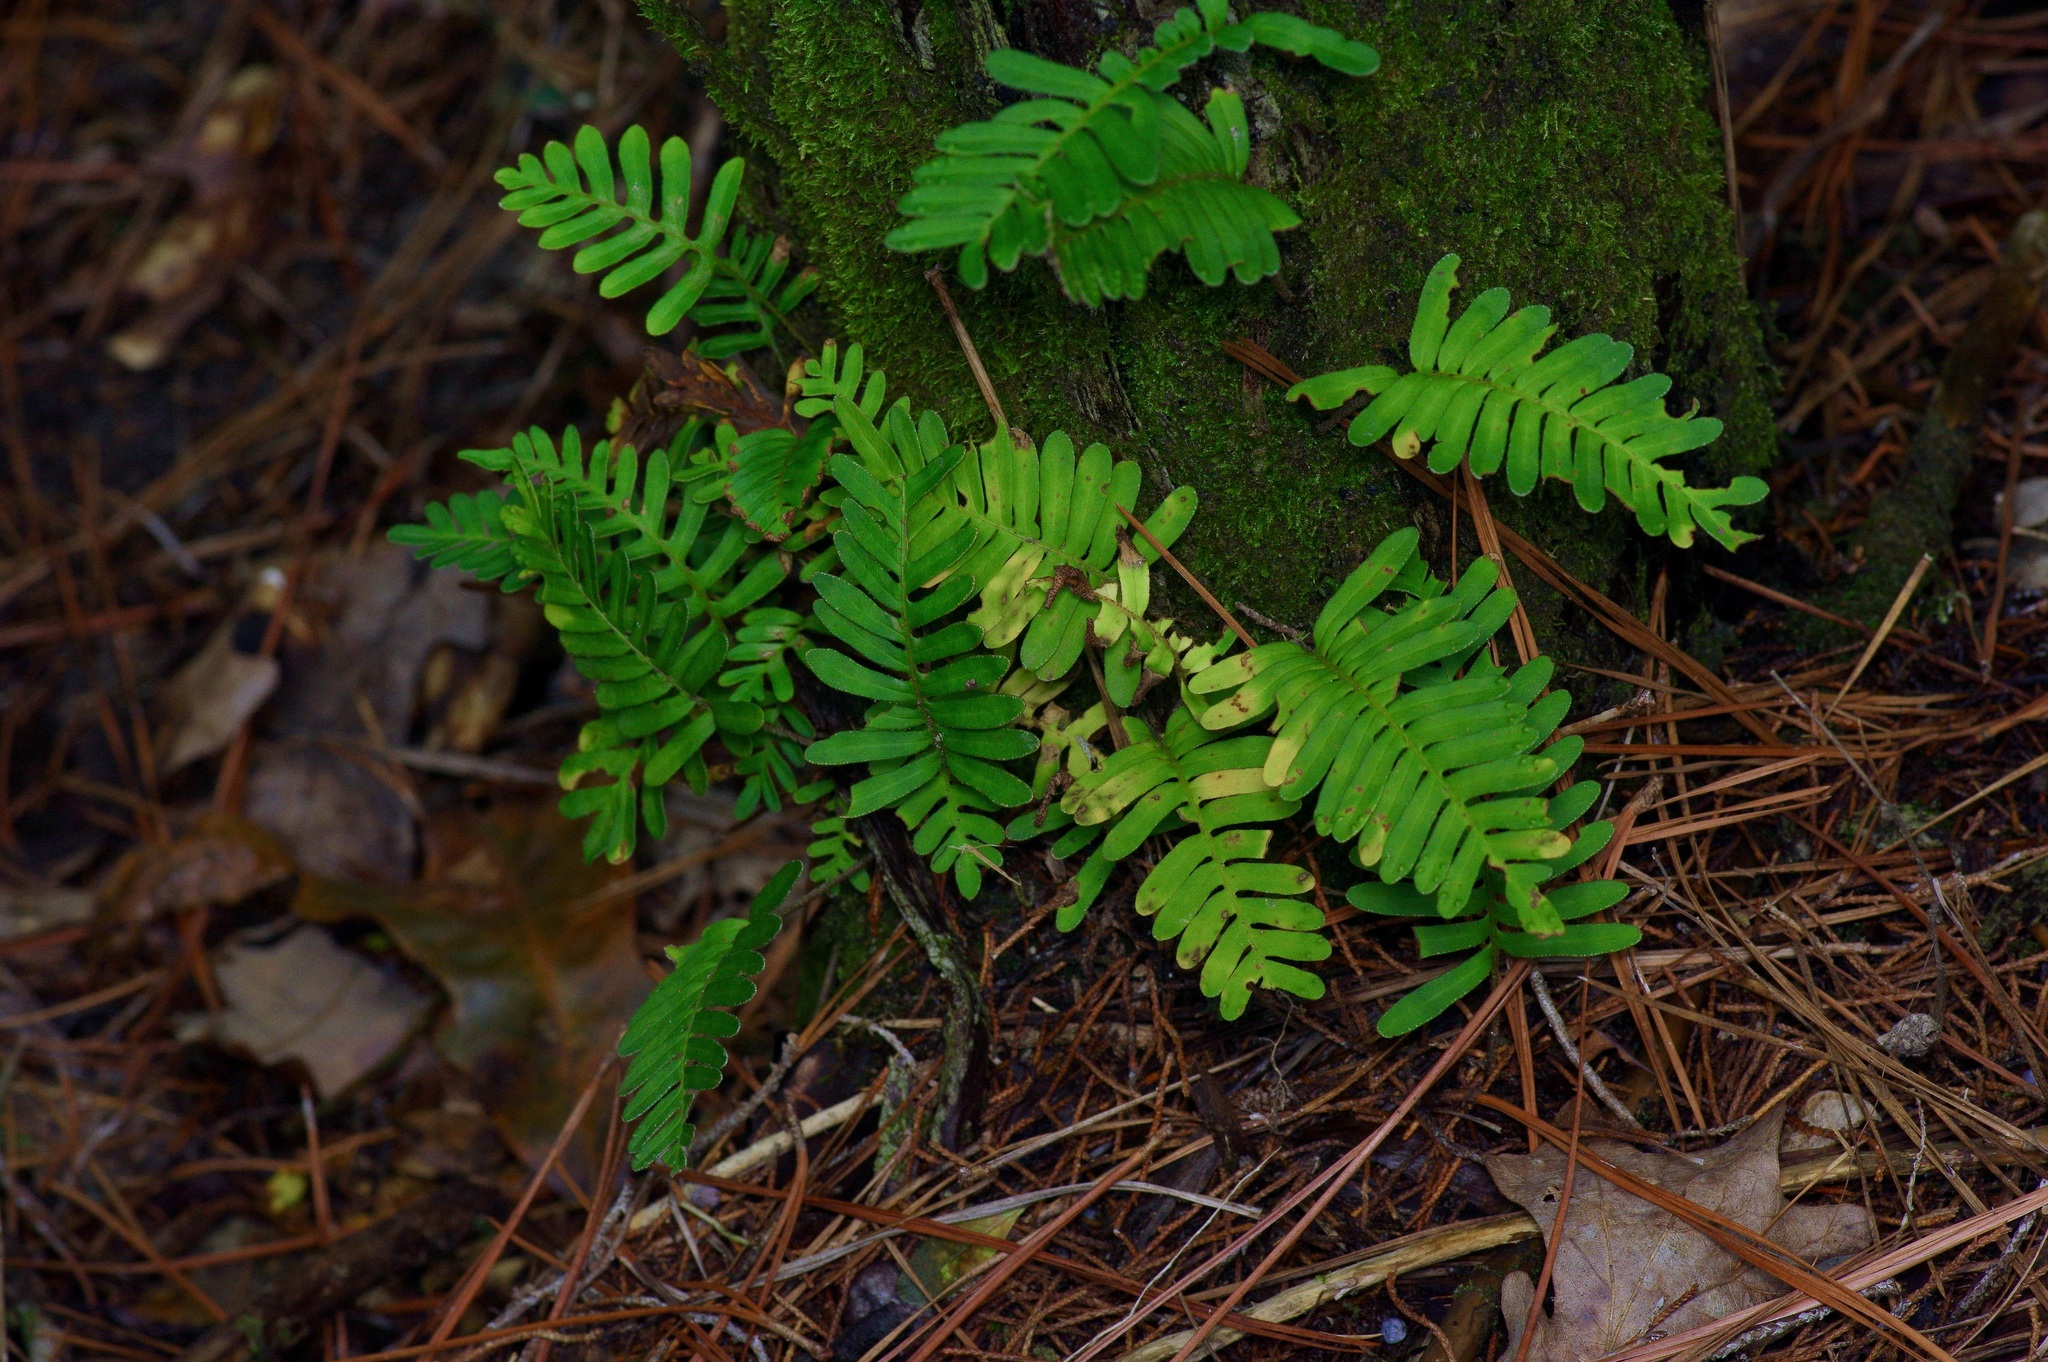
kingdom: Plantae
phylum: Tracheophyta
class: Polypodiopsida
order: Polypodiales
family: Polypodiaceae
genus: Pleopeltis
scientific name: Pleopeltis michauxiana
